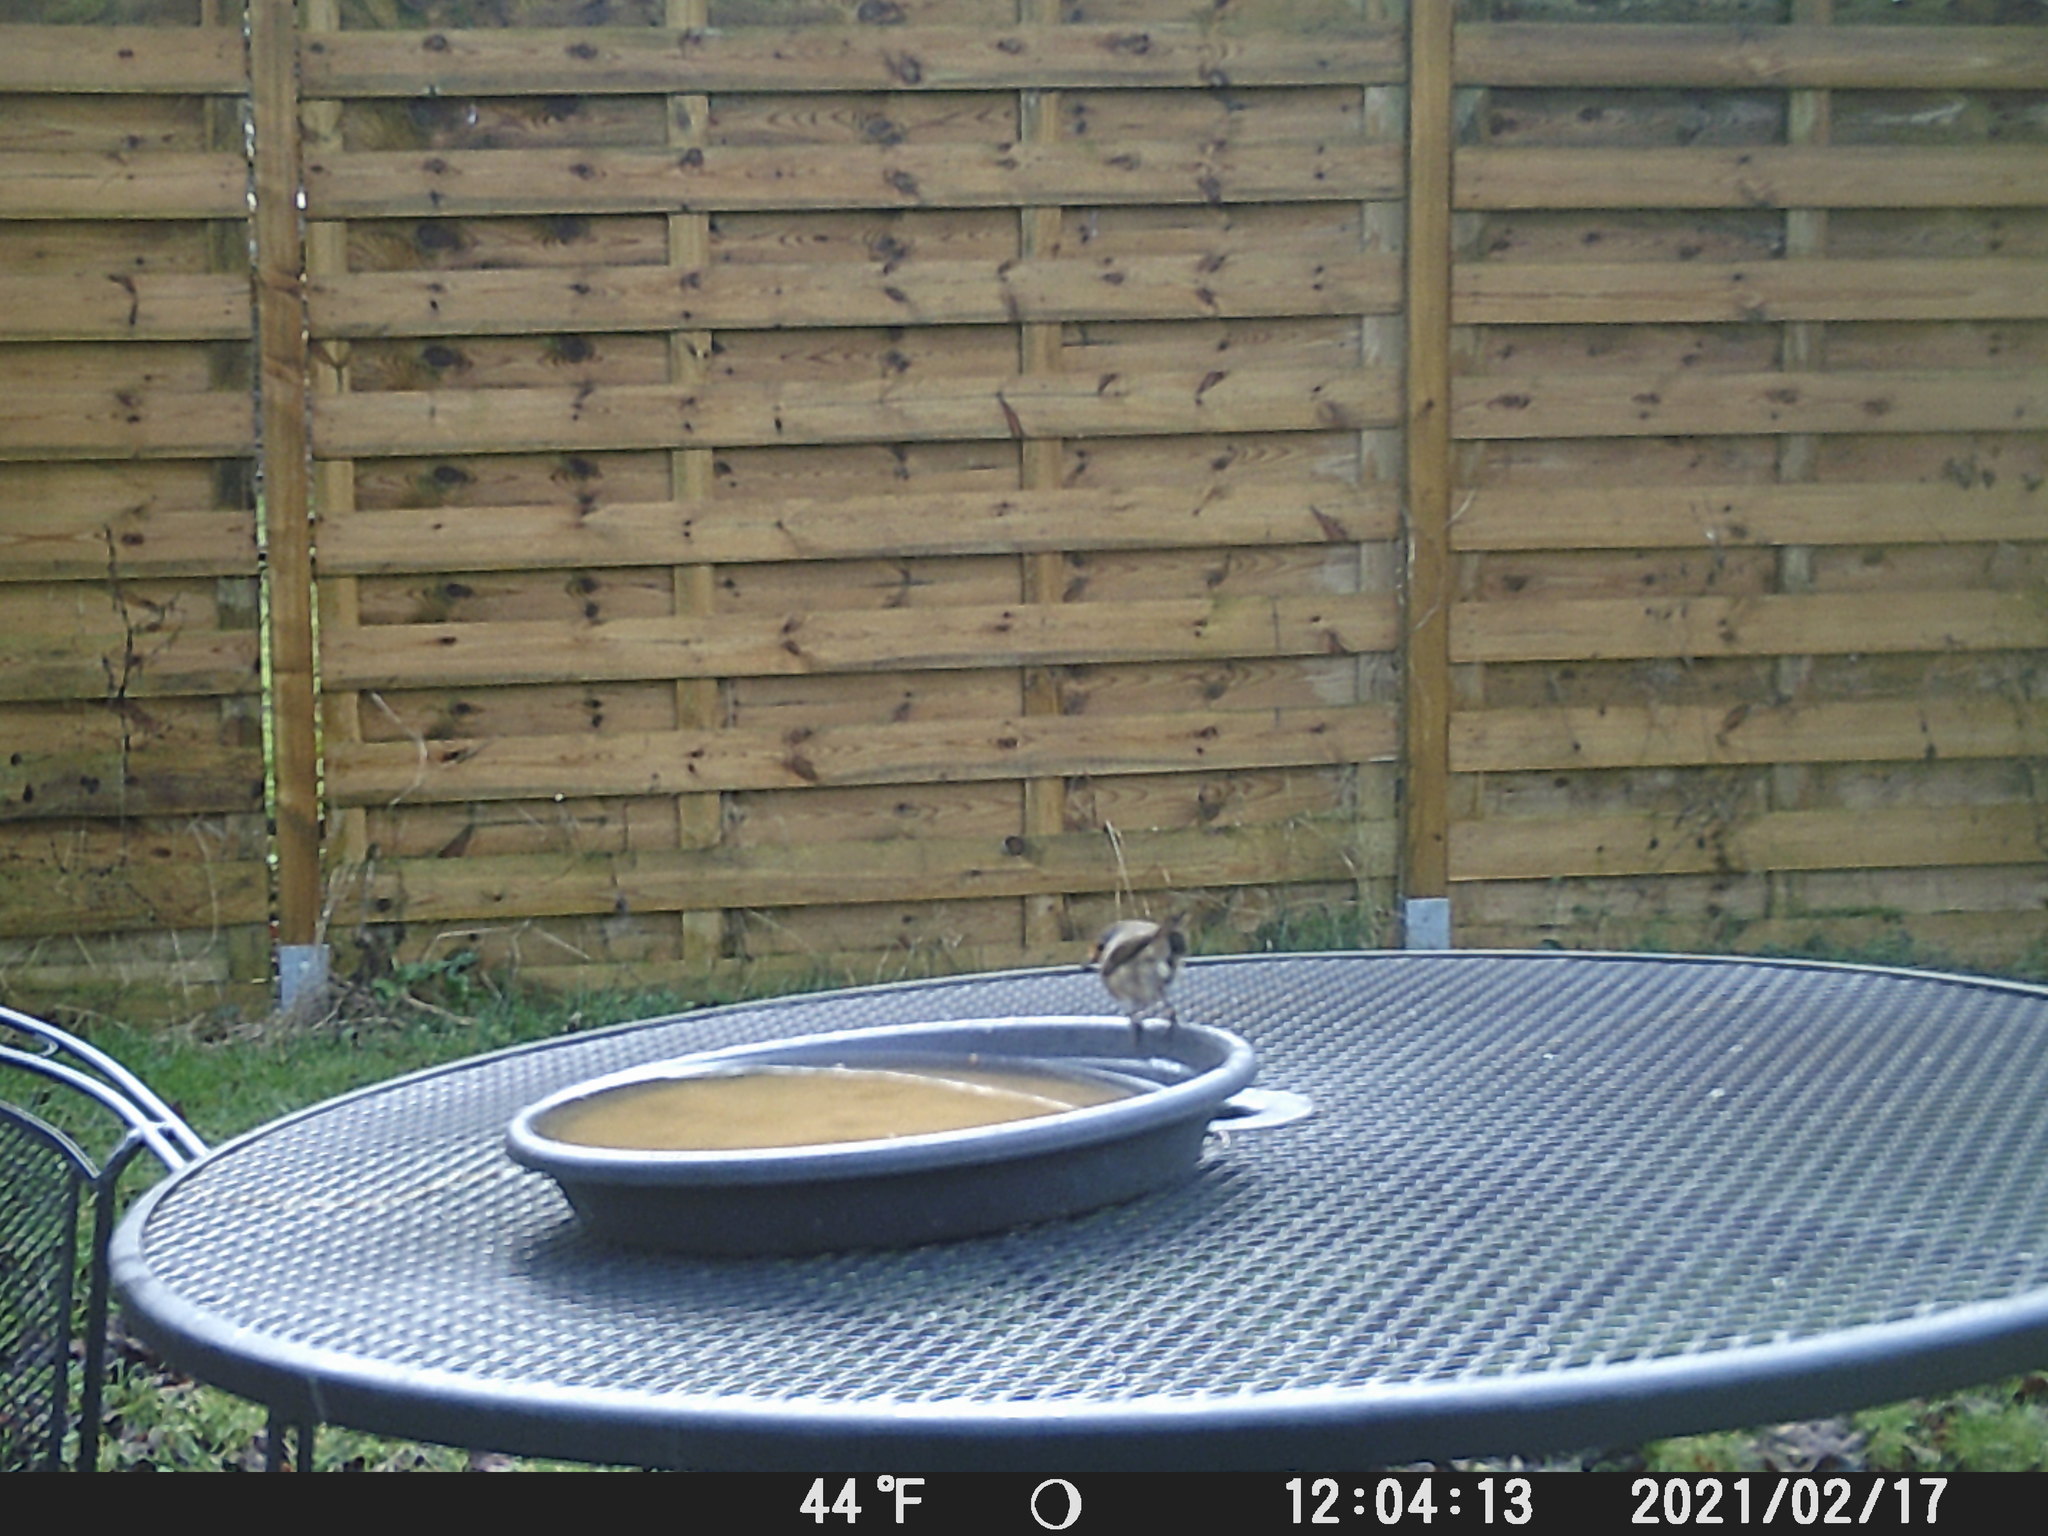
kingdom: Animalia
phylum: Chordata
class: Aves
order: Passeriformes
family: Muscicapidae
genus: Erithacus
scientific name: Erithacus rubecula
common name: European robin
